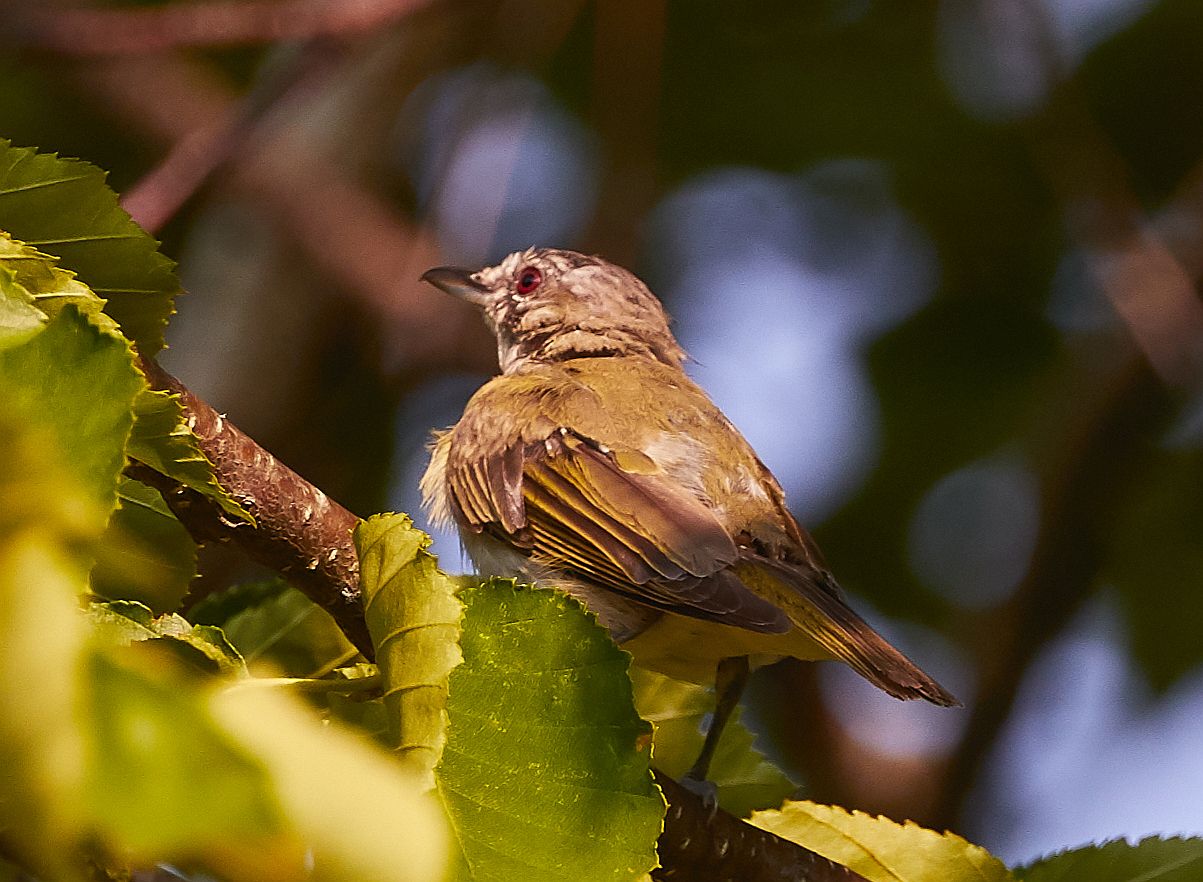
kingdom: Animalia
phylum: Chordata
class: Aves
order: Passeriformes
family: Vireonidae
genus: Vireo
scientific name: Vireo olivaceus
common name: Red-eyed vireo
